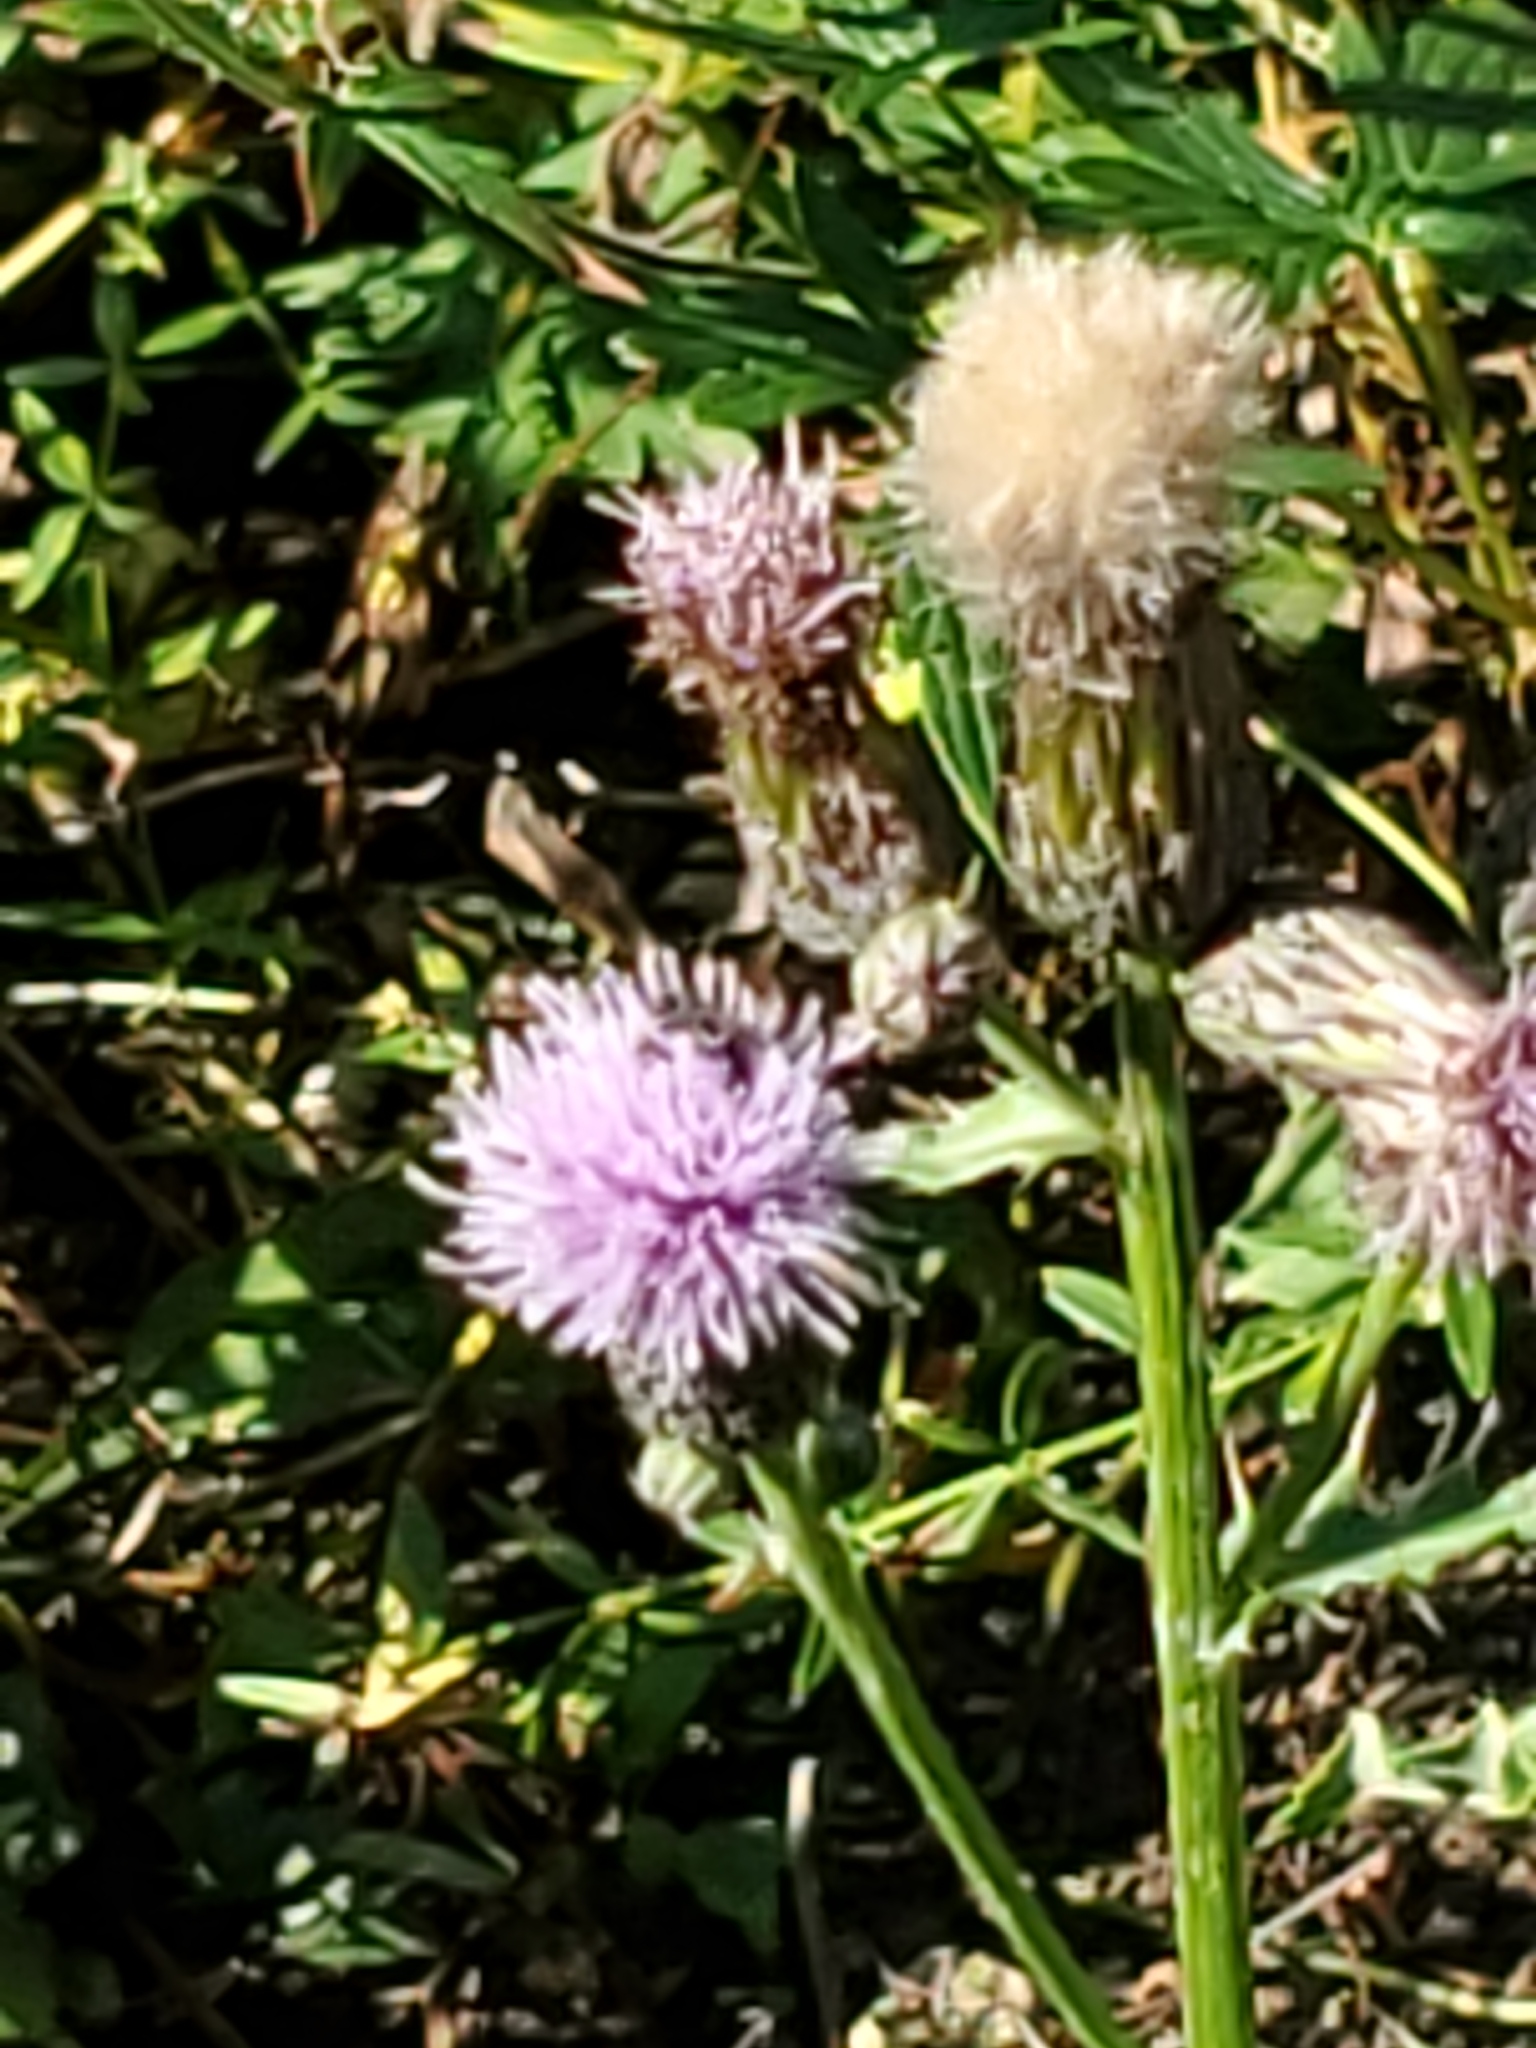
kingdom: Plantae
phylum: Tracheophyta
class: Magnoliopsida
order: Asterales
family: Asteraceae
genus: Cirsium
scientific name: Cirsium arvense
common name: Creeping thistle
